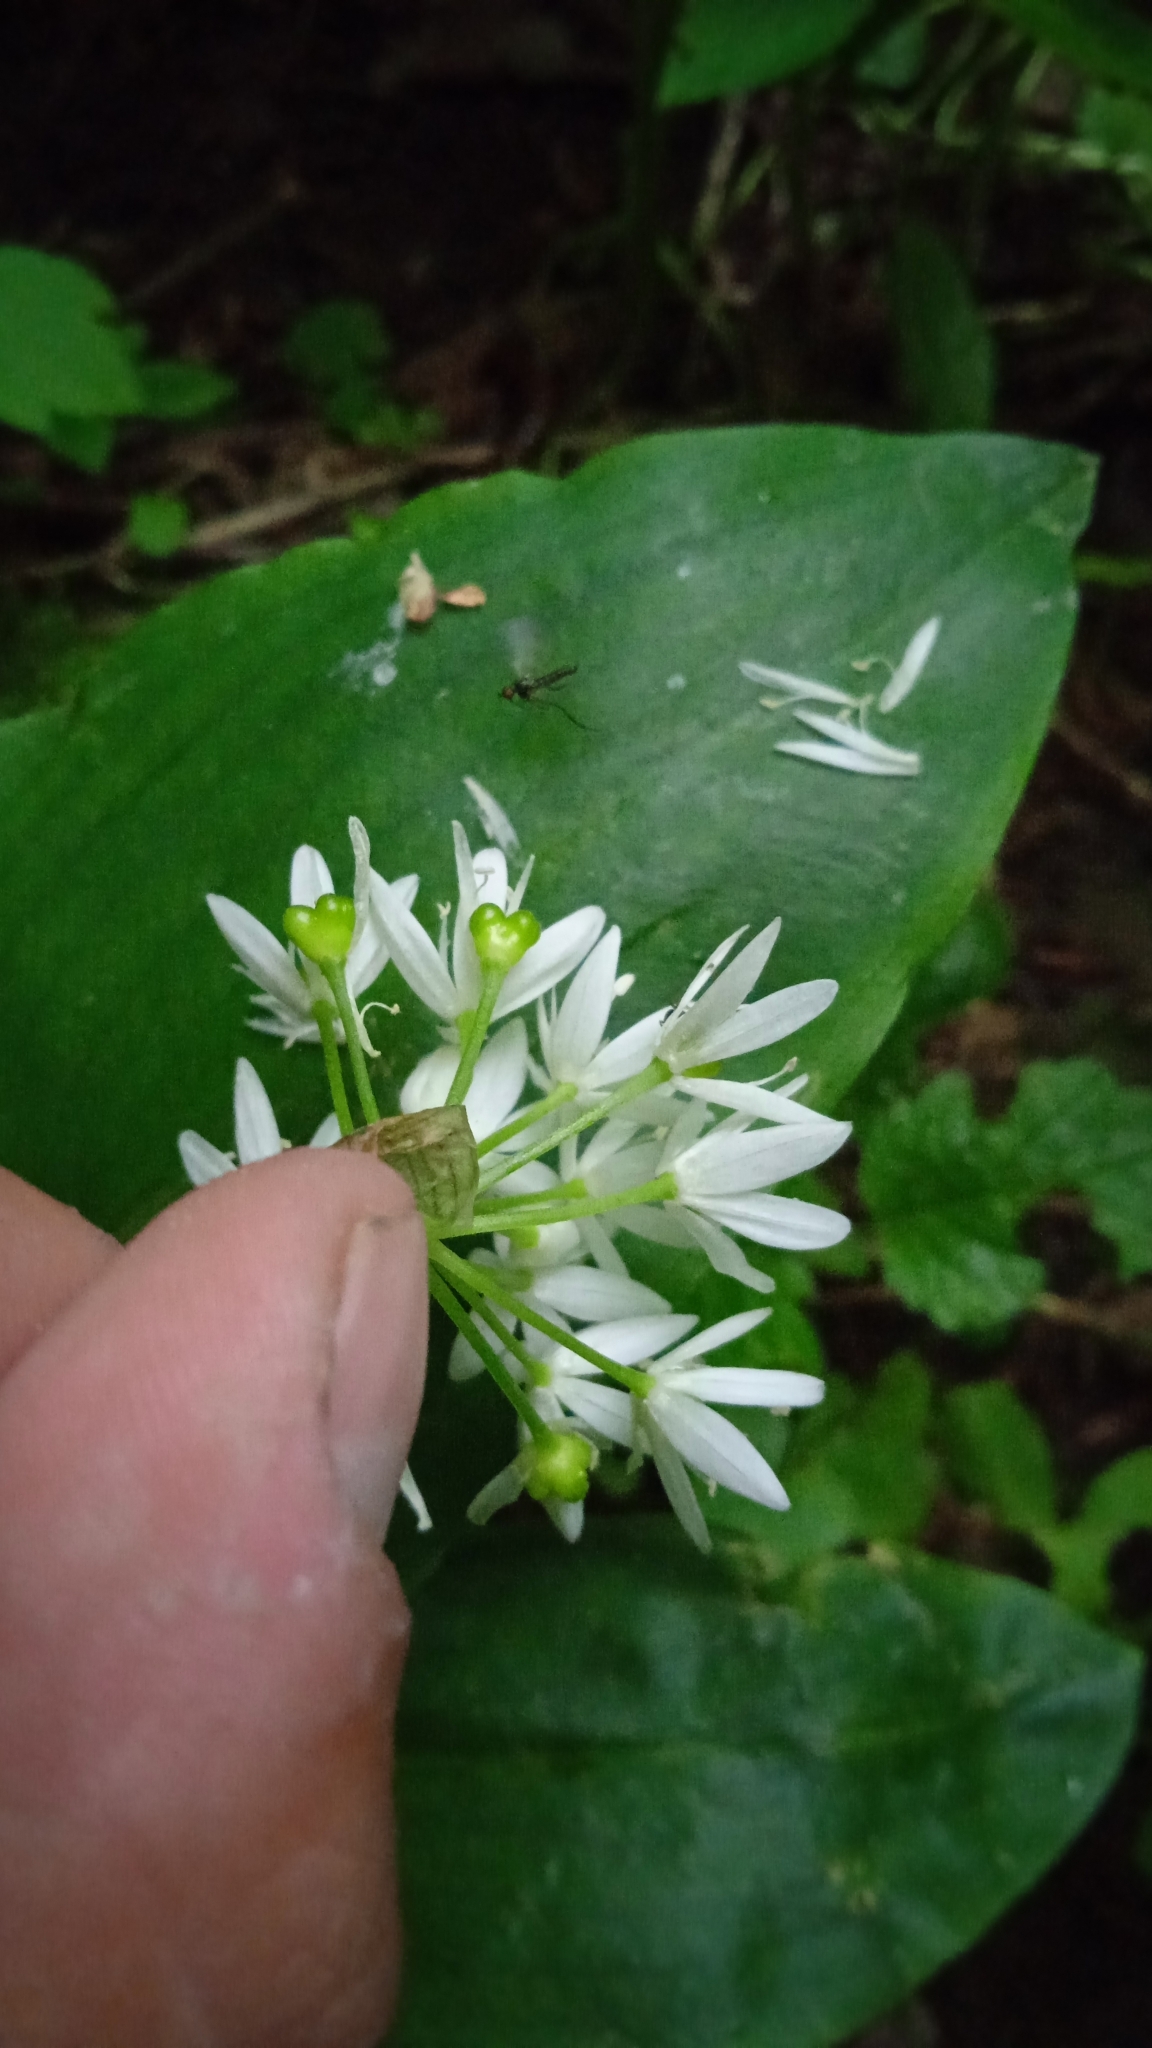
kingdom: Plantae
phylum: Tracheophyta
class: Liliopsida
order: Asparagales
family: Amaryllidaceae
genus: Allium
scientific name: Allium ursinum
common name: Ramsons
